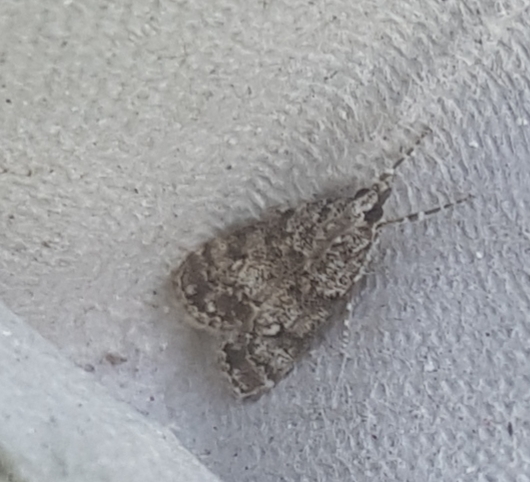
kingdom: Animalia
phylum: Arthropoda
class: Insecta
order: Lepidoptera
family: Crambidae
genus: Eudonia
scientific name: Eudonia lacustrata
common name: Little grey
